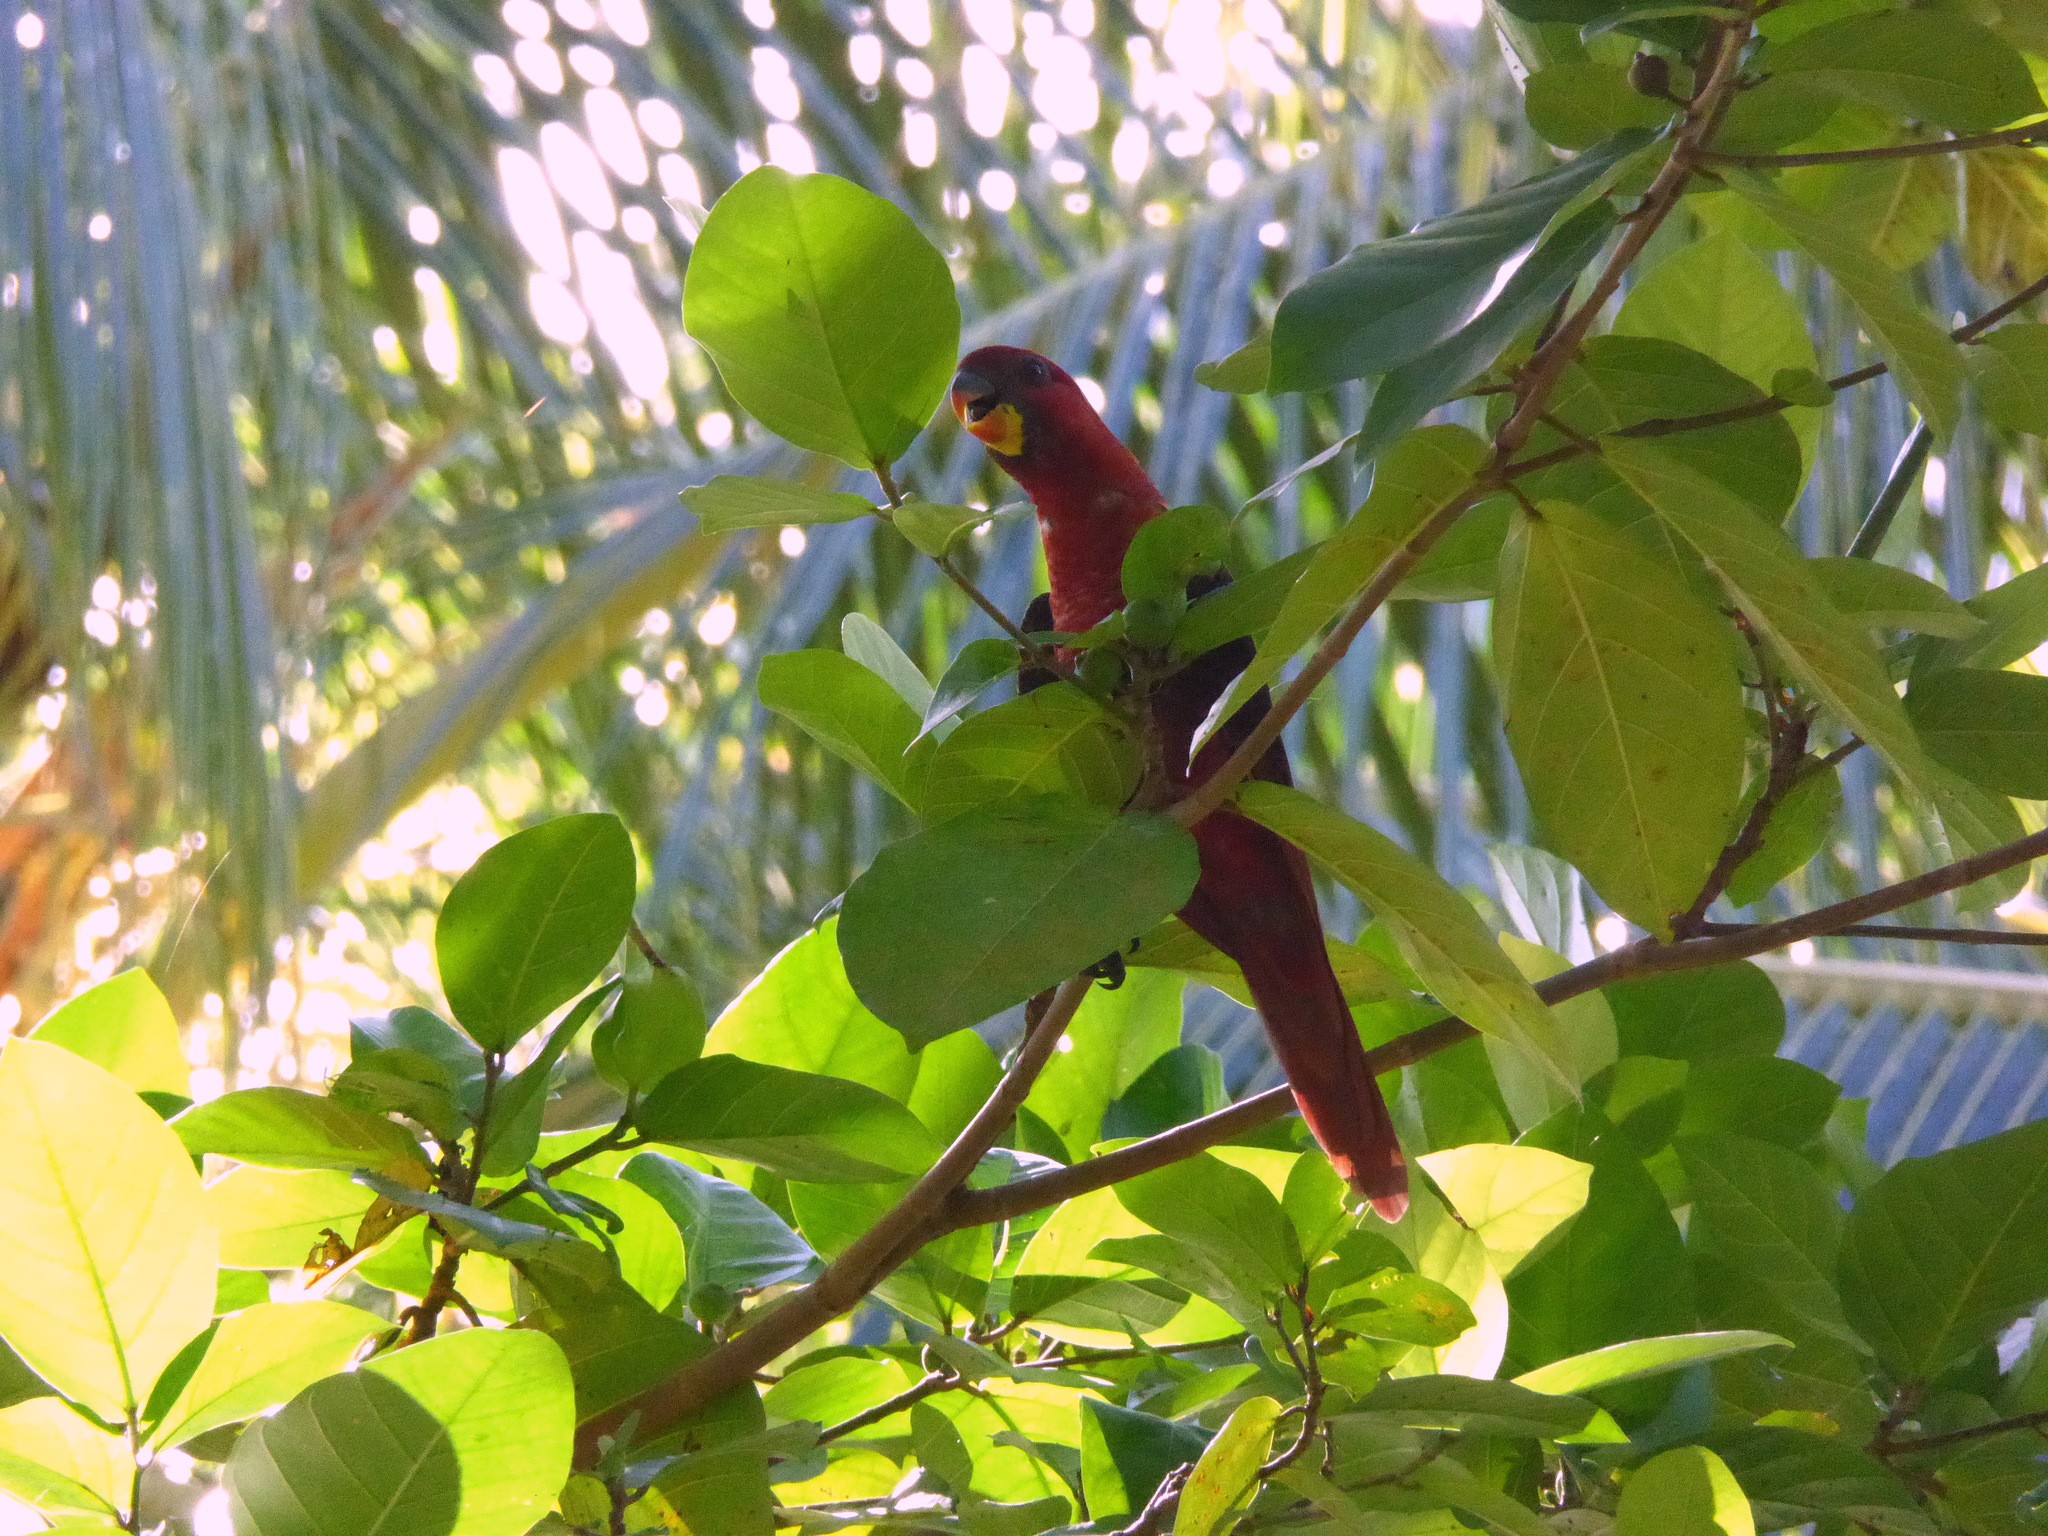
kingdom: Animalia
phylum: Chordata
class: Aves
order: Psittaciformes
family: Psittacidae
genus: Chalcopsitta
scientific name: Chalcopsitta cardinalis
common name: Cardinal lory
